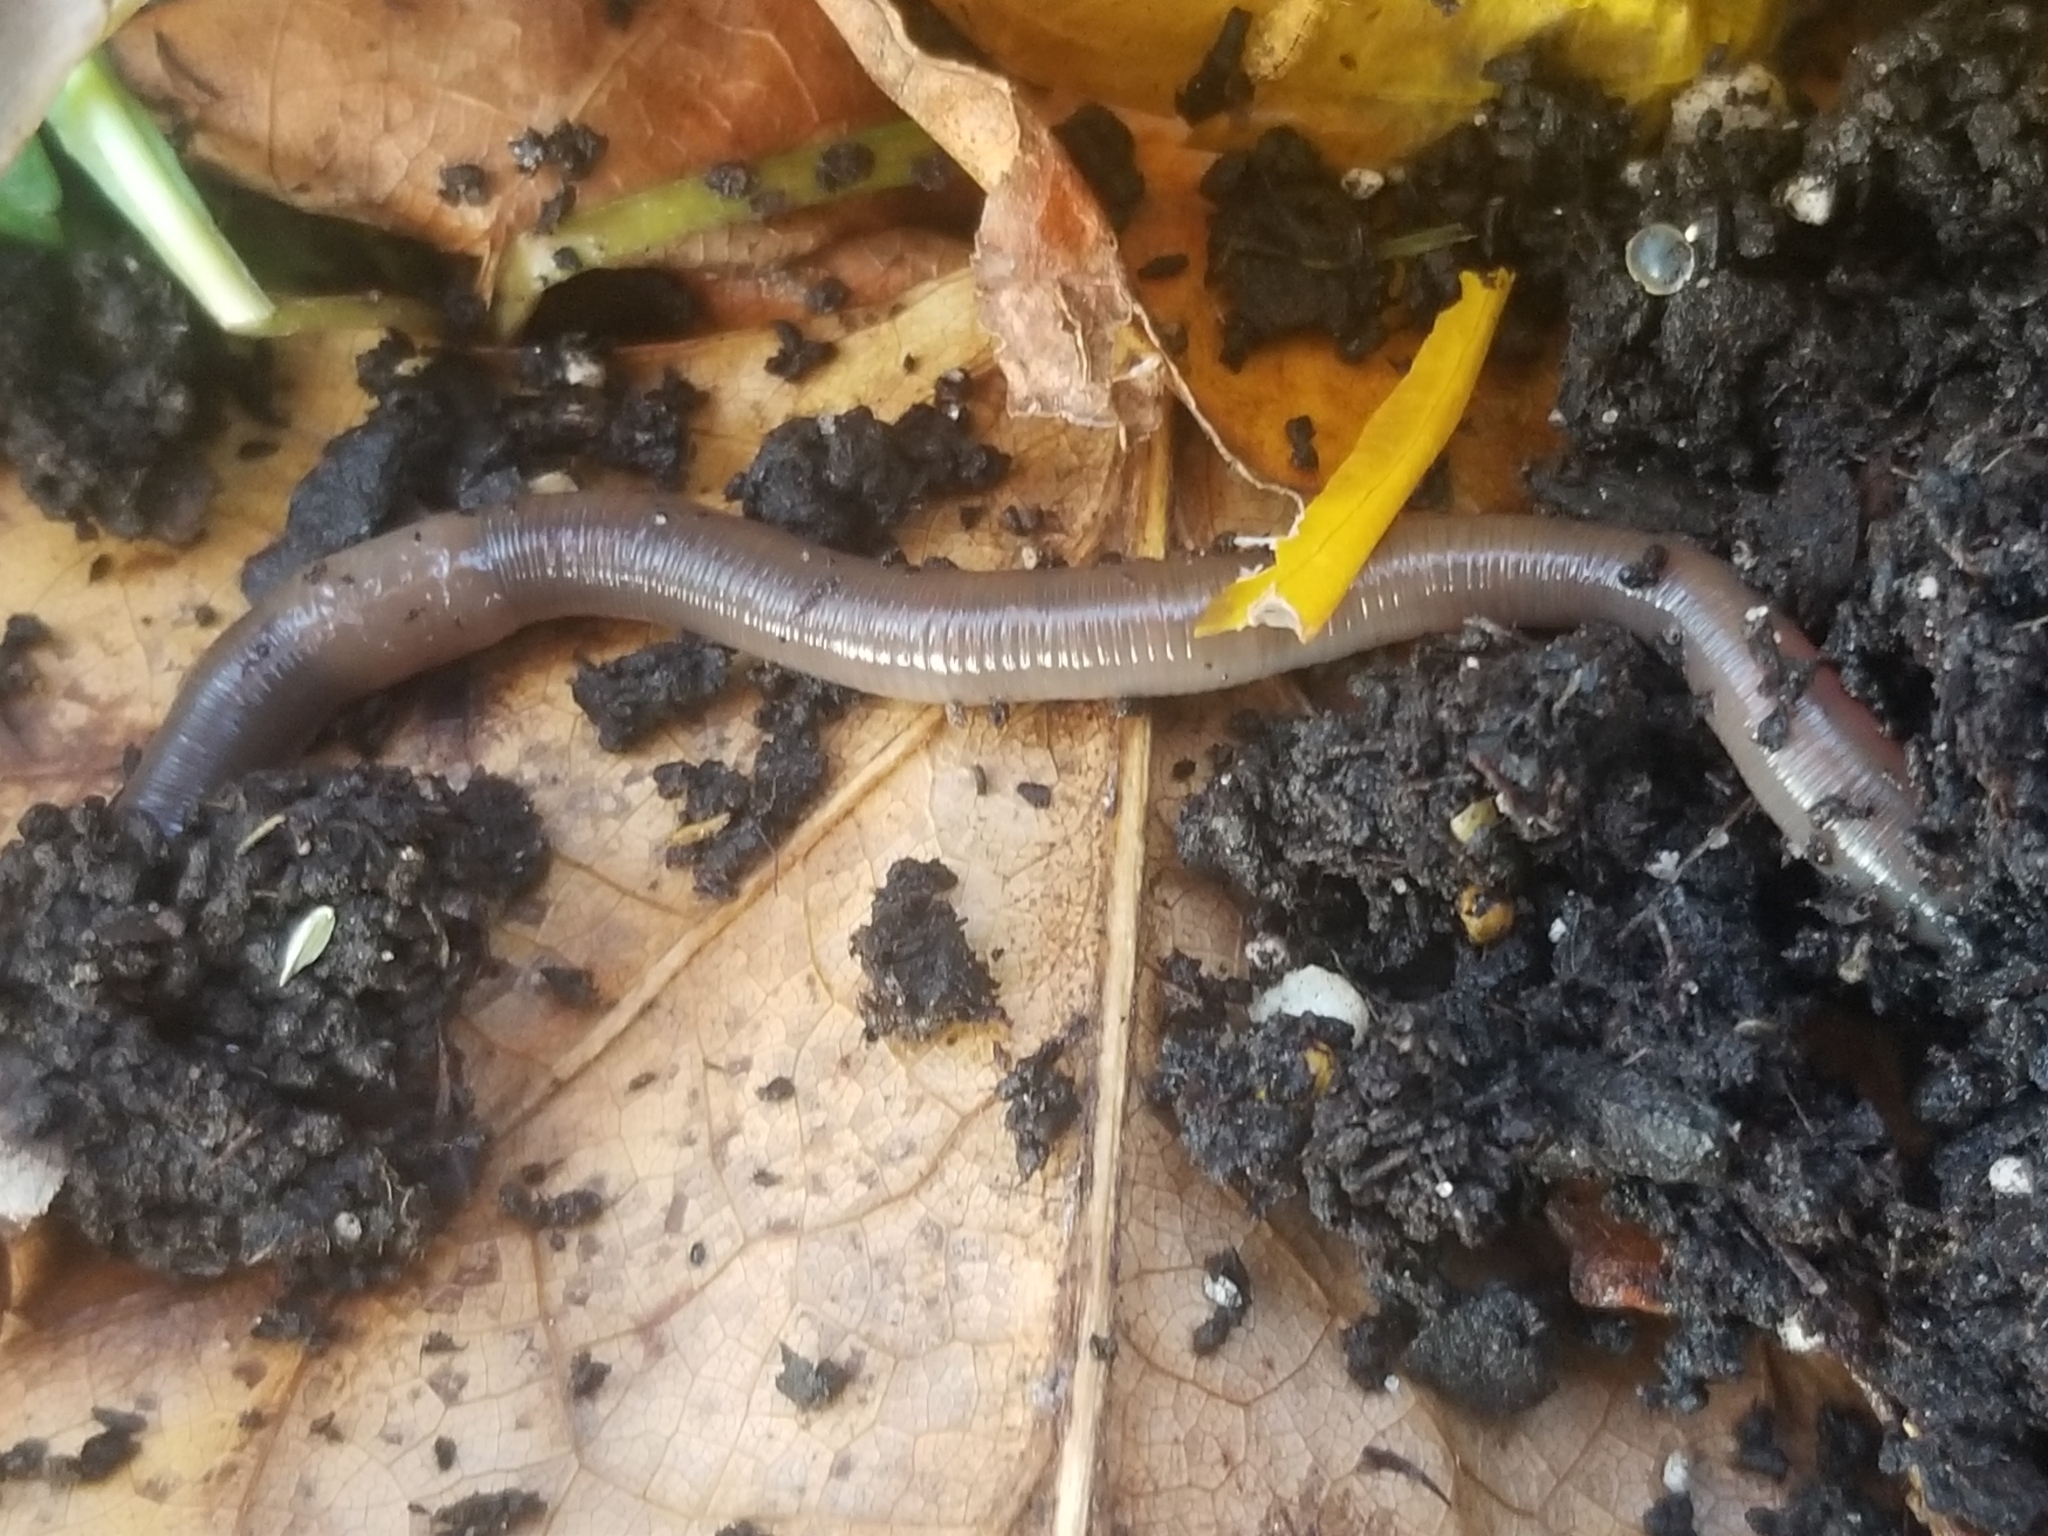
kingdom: Animalia
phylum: Annelida
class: Clitellata
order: Crassiclitellata
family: Lumbricidae
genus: Lumbricus
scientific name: Lumbricus terrestris
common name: Common earthworm
